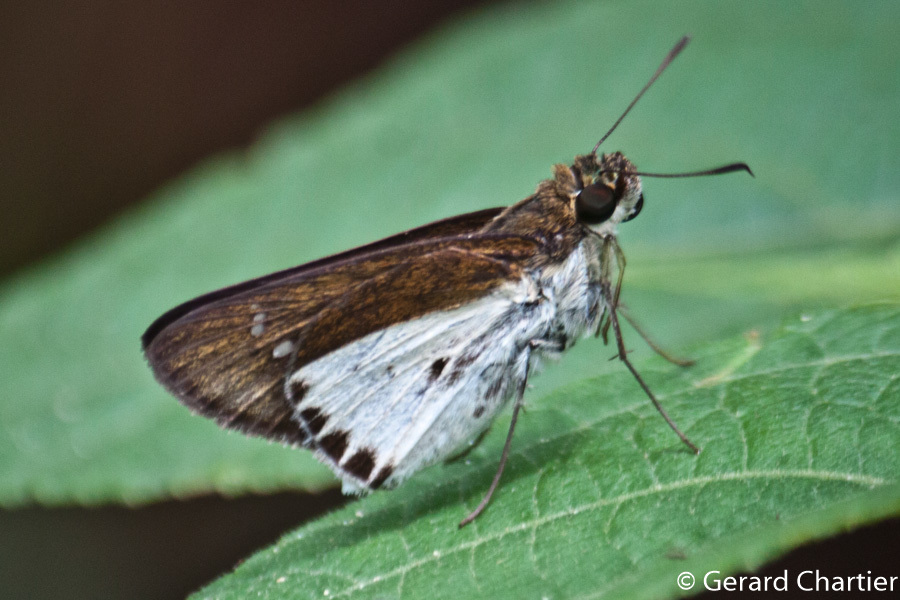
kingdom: Animalia
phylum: Arthropoda
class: Insecta
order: Lepidoptera
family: Hesperiidae
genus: Iton
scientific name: Iton semamora
